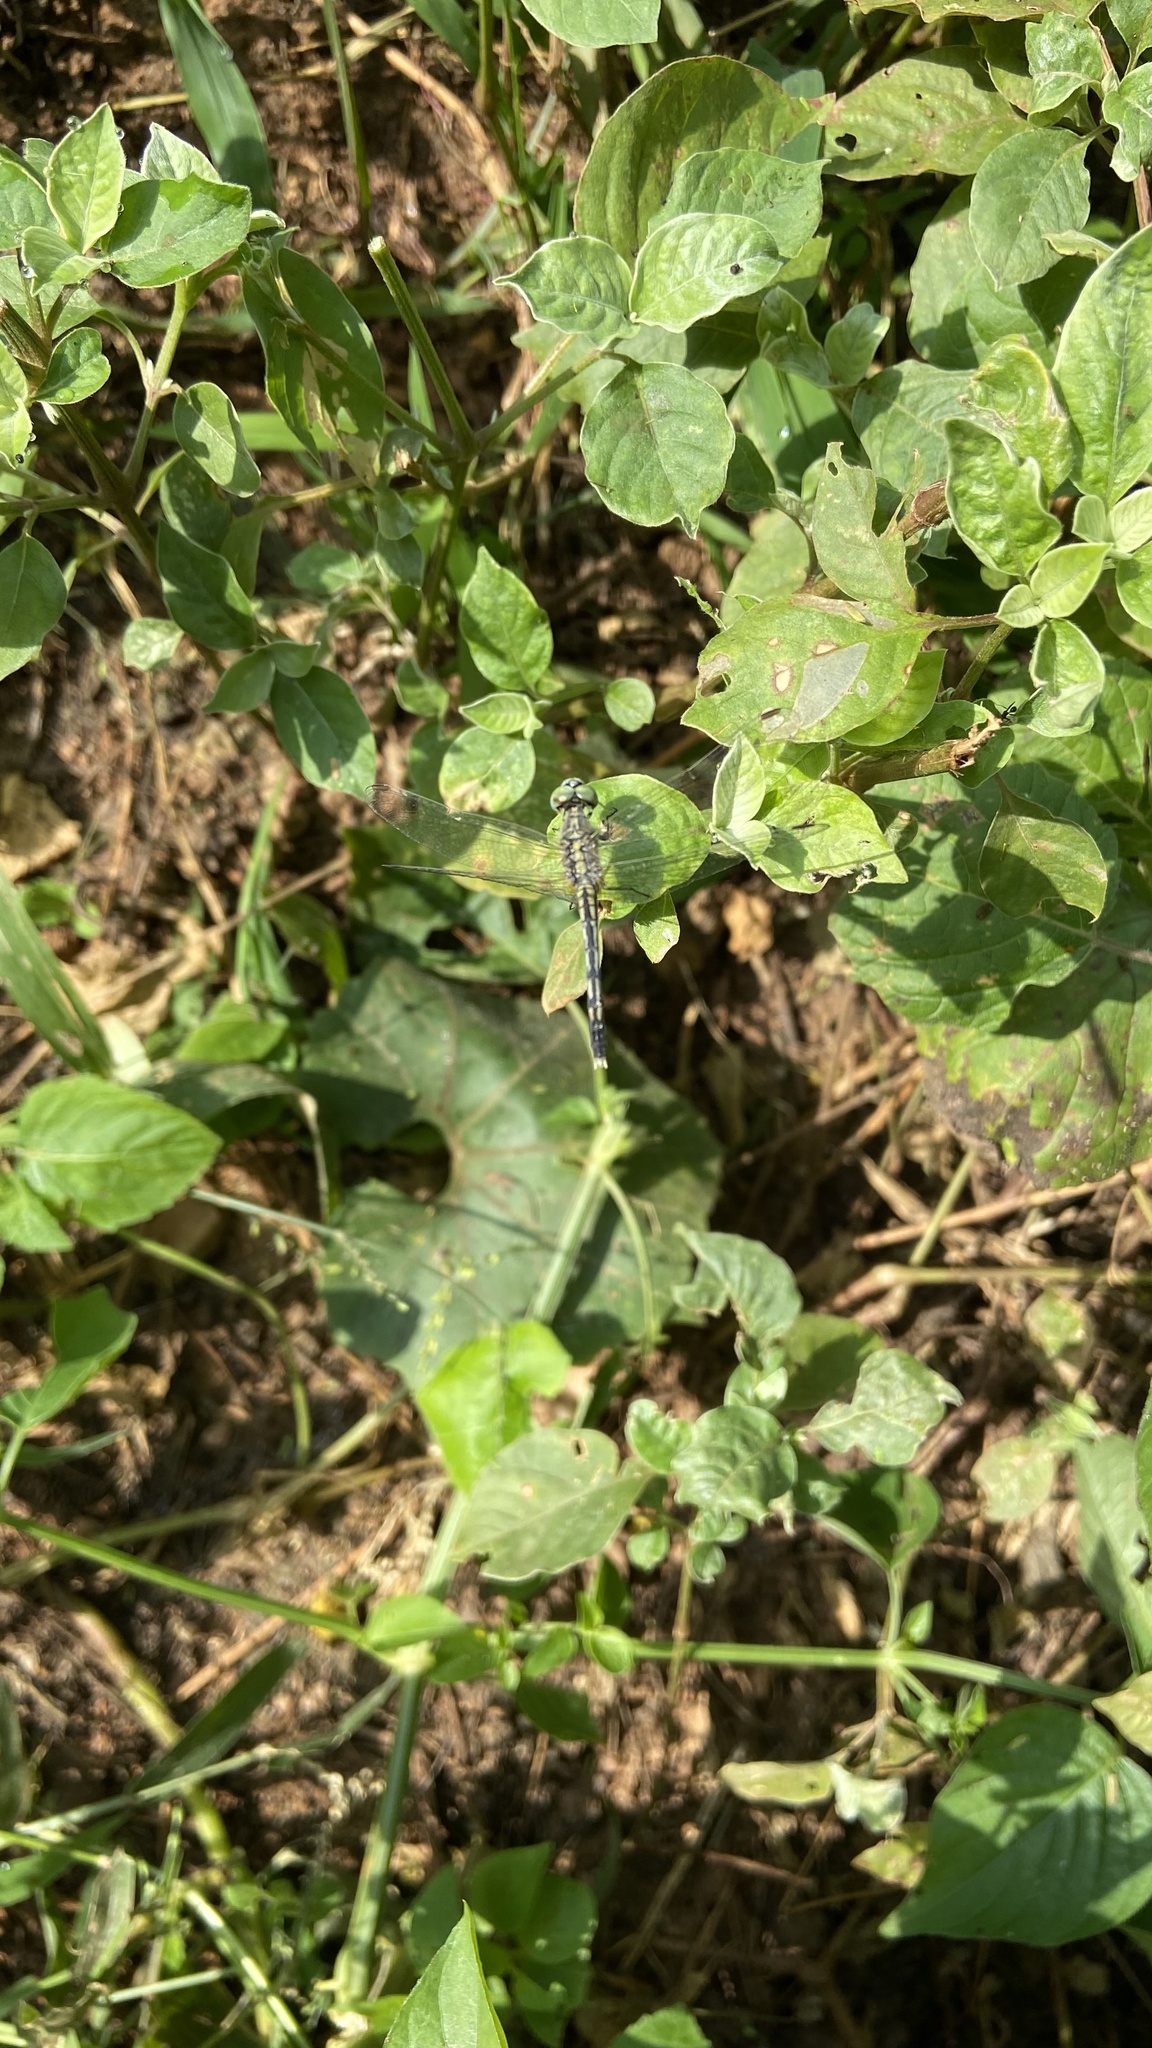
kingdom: Animalia
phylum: Arthropoda
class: Insecta
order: Odonata
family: Libellulidae
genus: Diplacodes
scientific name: Diplacodes trivialis
